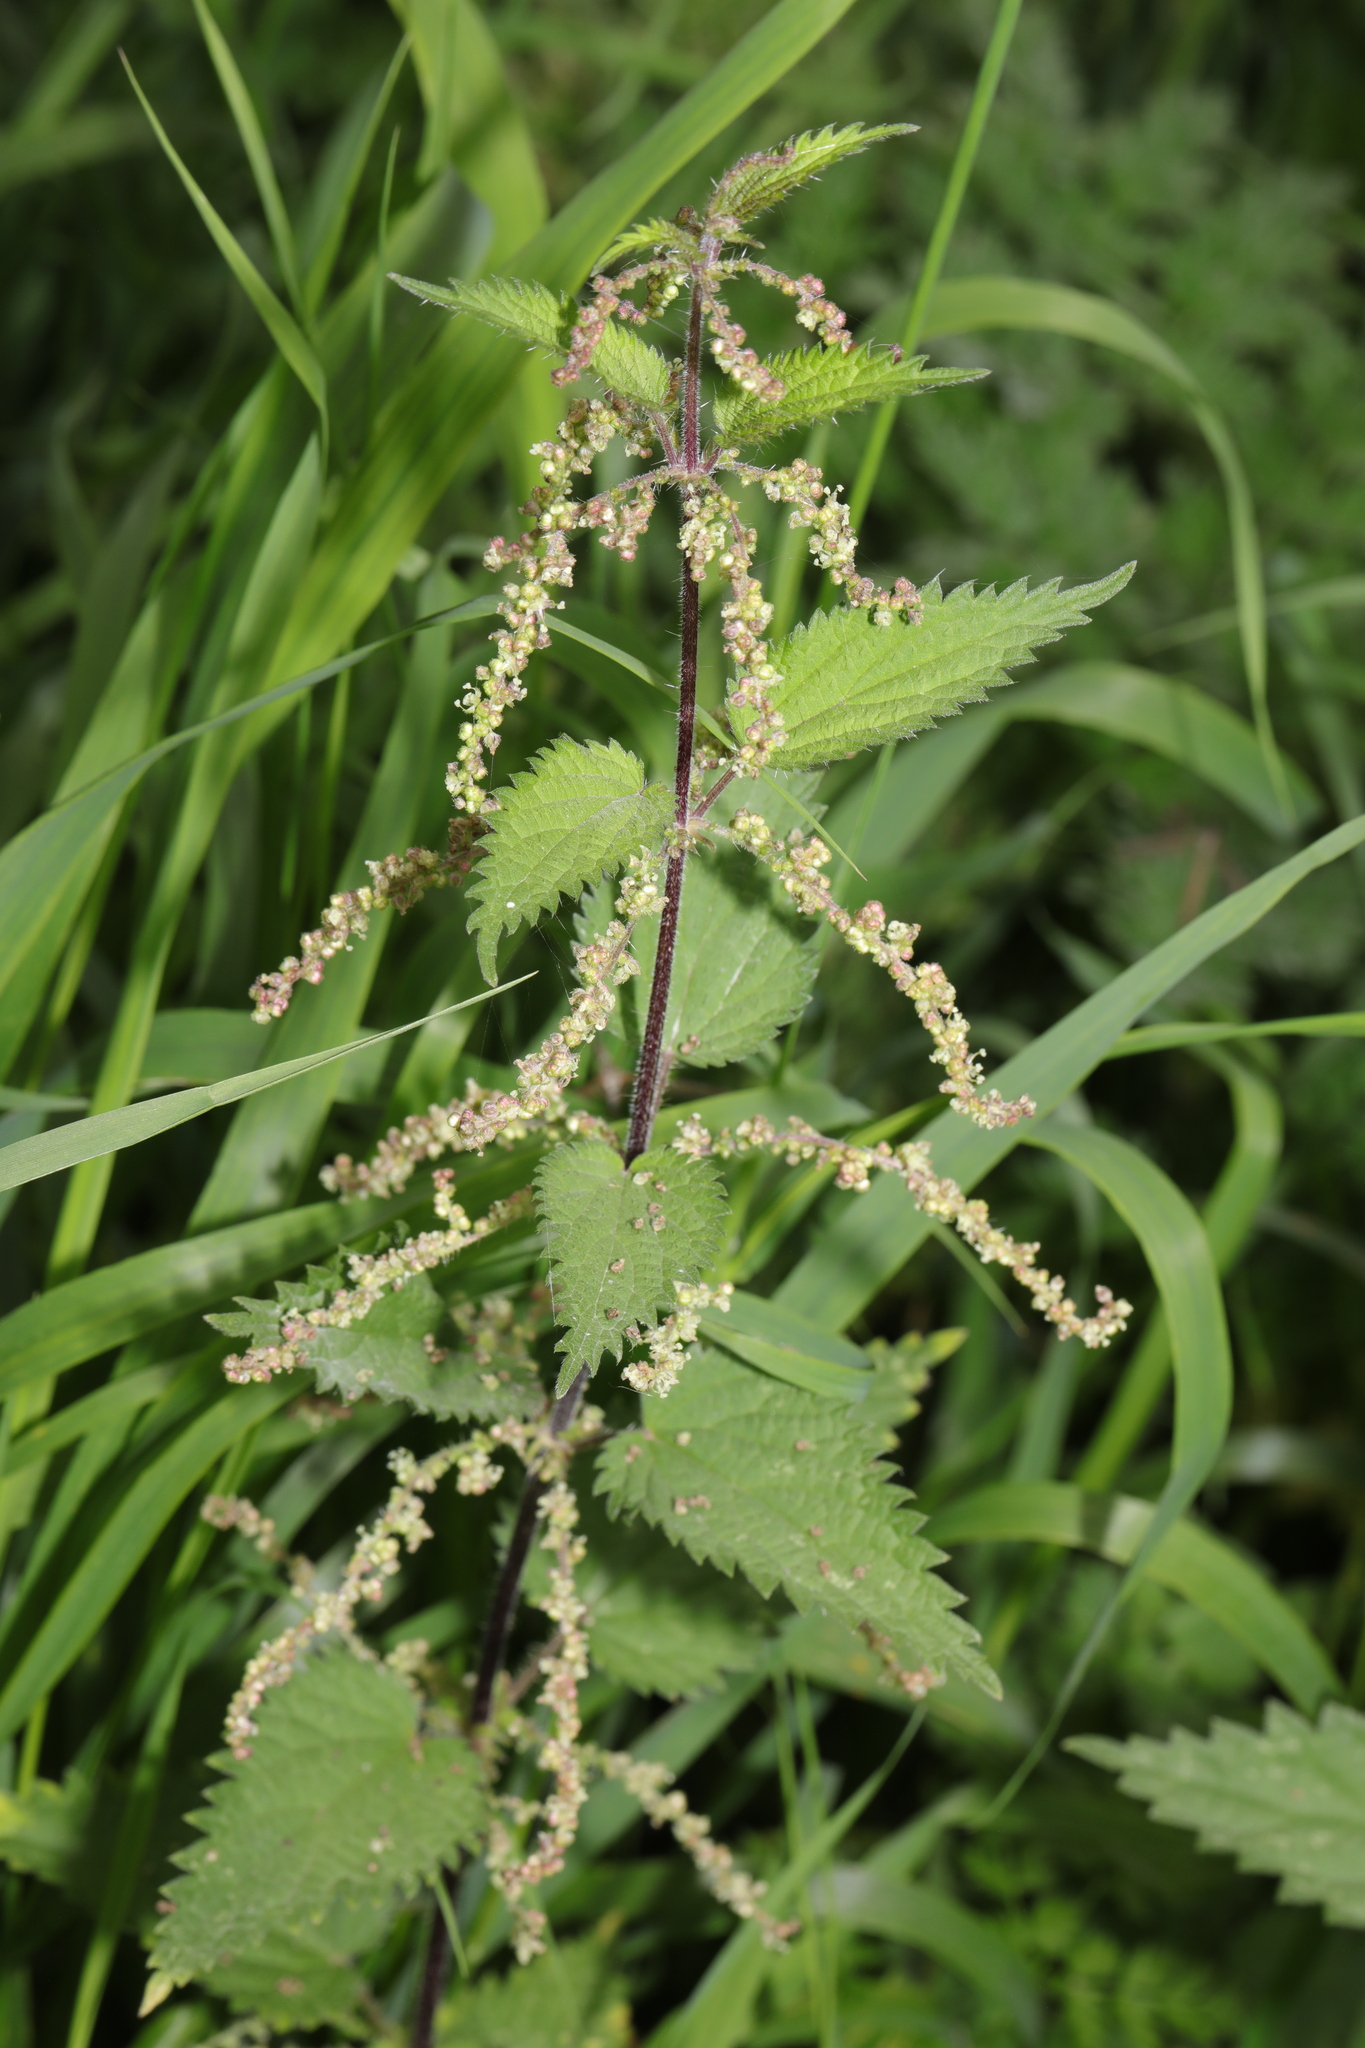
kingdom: Plantae
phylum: Tracheophyta
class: Magnoliopsida
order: Rosales
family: Urticaceae
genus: Urtica
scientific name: Urtica dioica
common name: Common nettle
